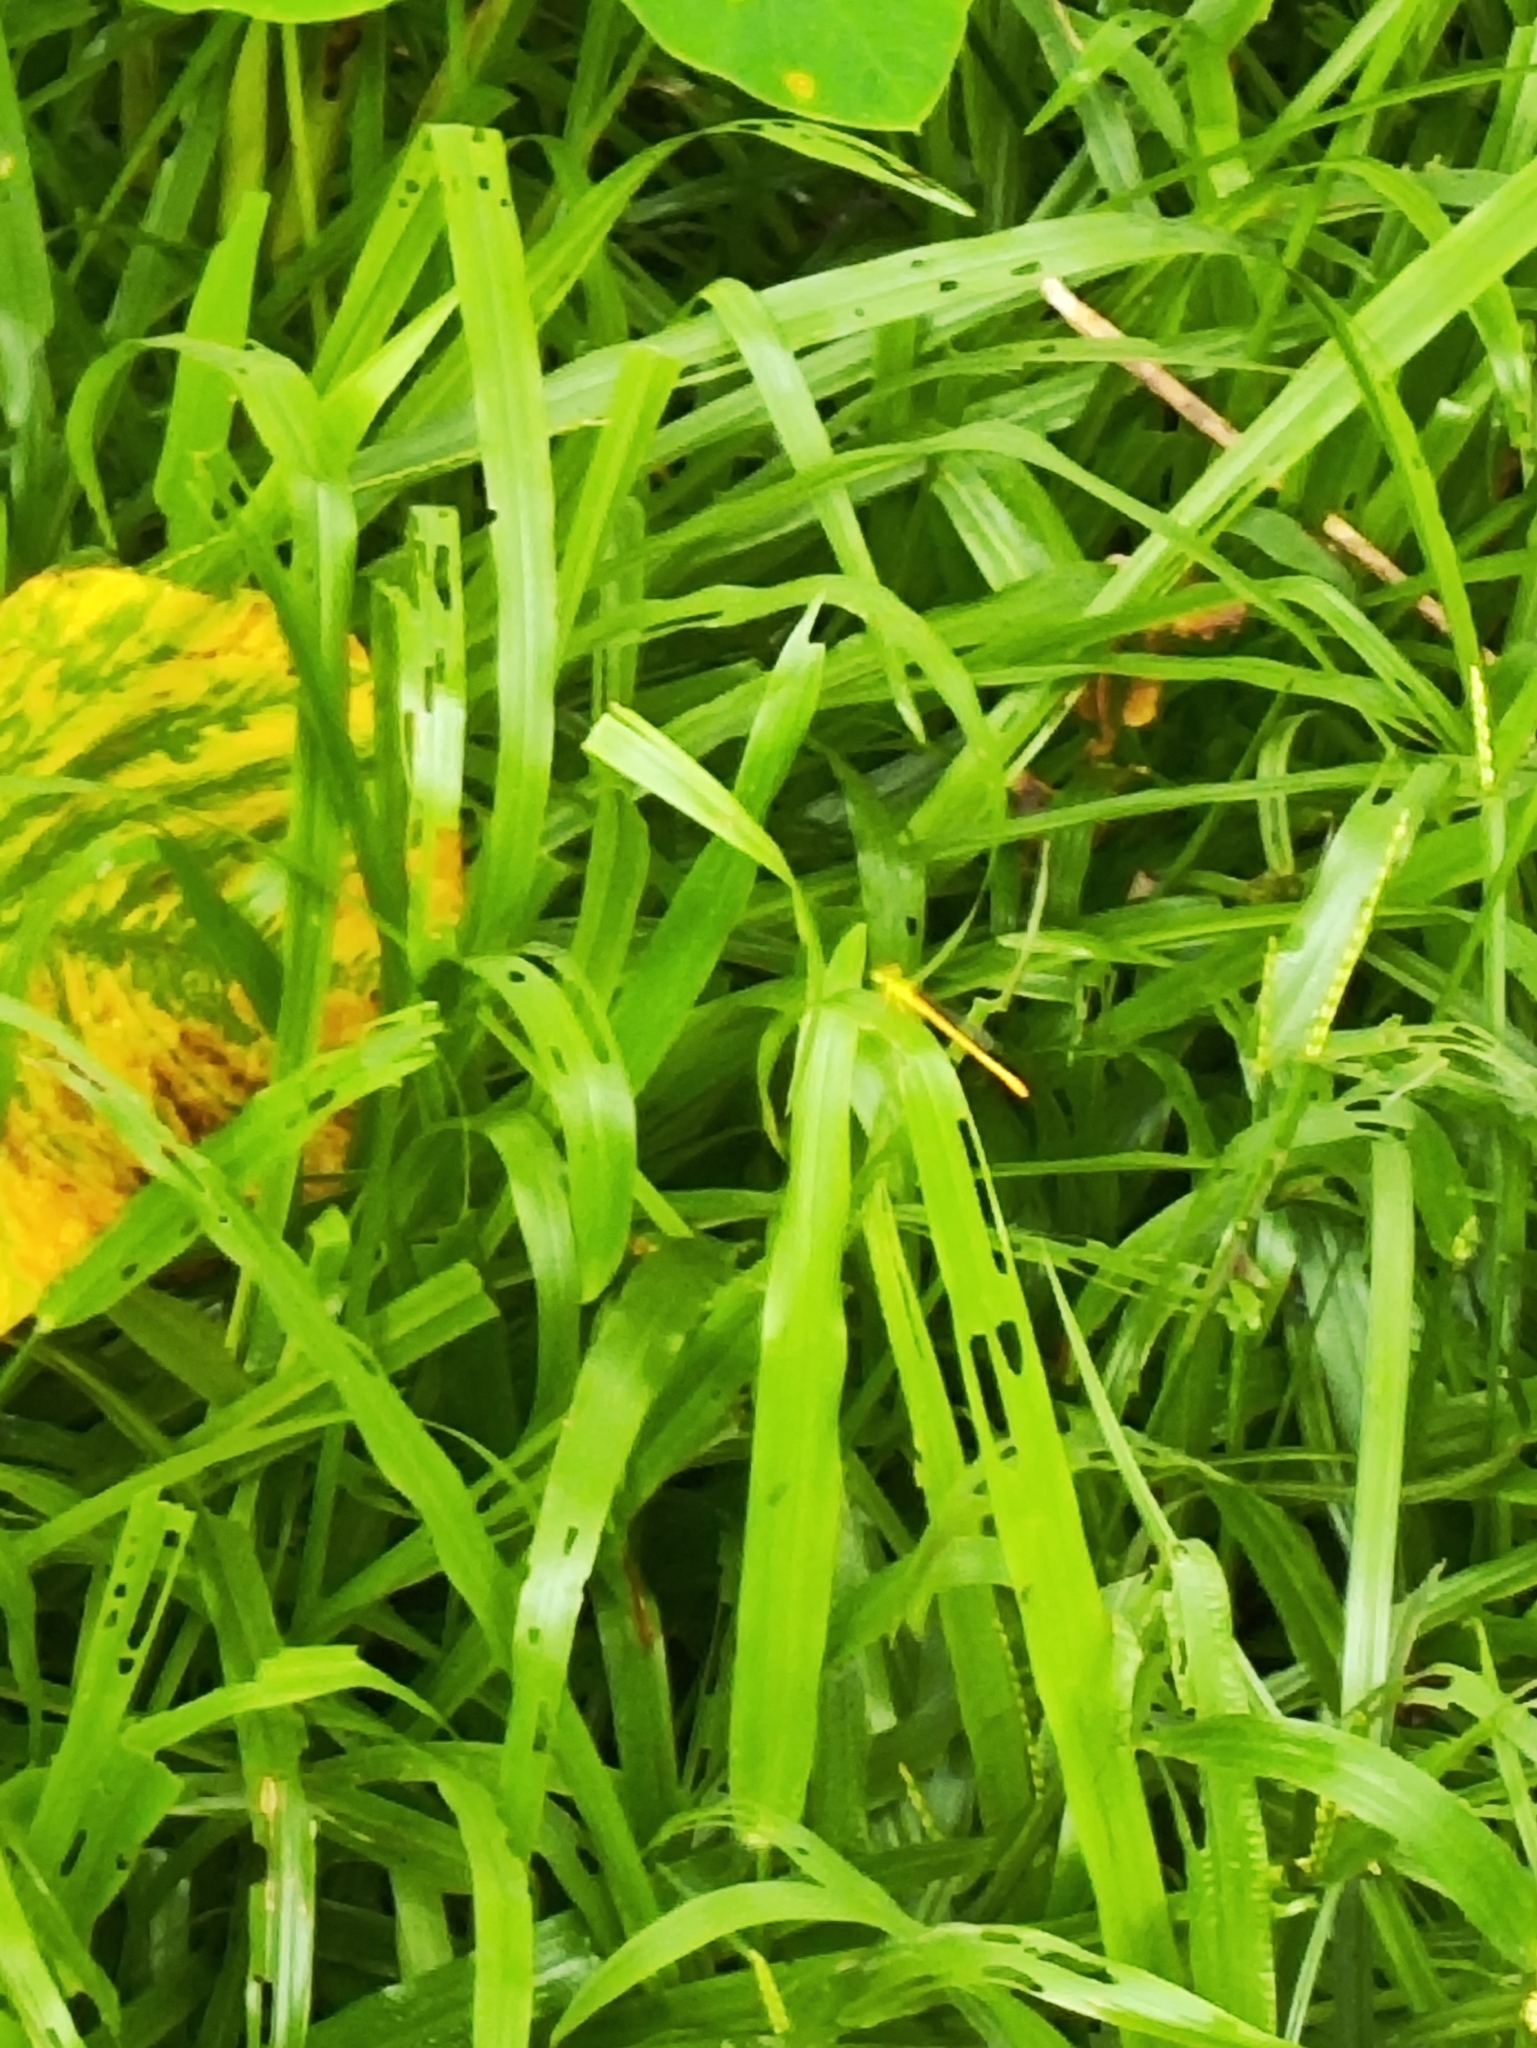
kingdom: Animalia
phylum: Arthropoda
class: Insecta
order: Odonata
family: Coenagrionidae
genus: Ceriagrion
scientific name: Ceriagrion coromandelianum
